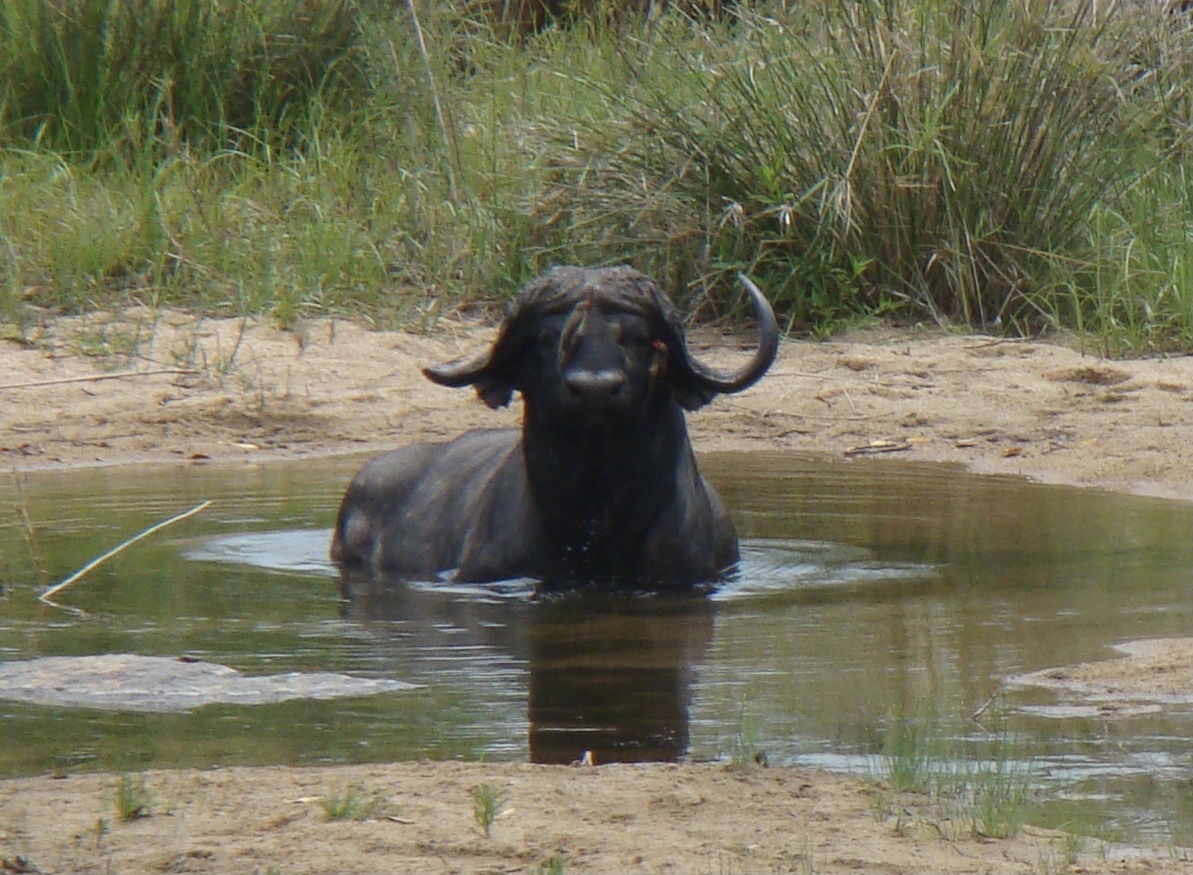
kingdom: Animalia
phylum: Chordata
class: Mammalia
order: Artiodactyla
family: Bovidae
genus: Syncerus
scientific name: Syncerus caffer
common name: African buffalo
